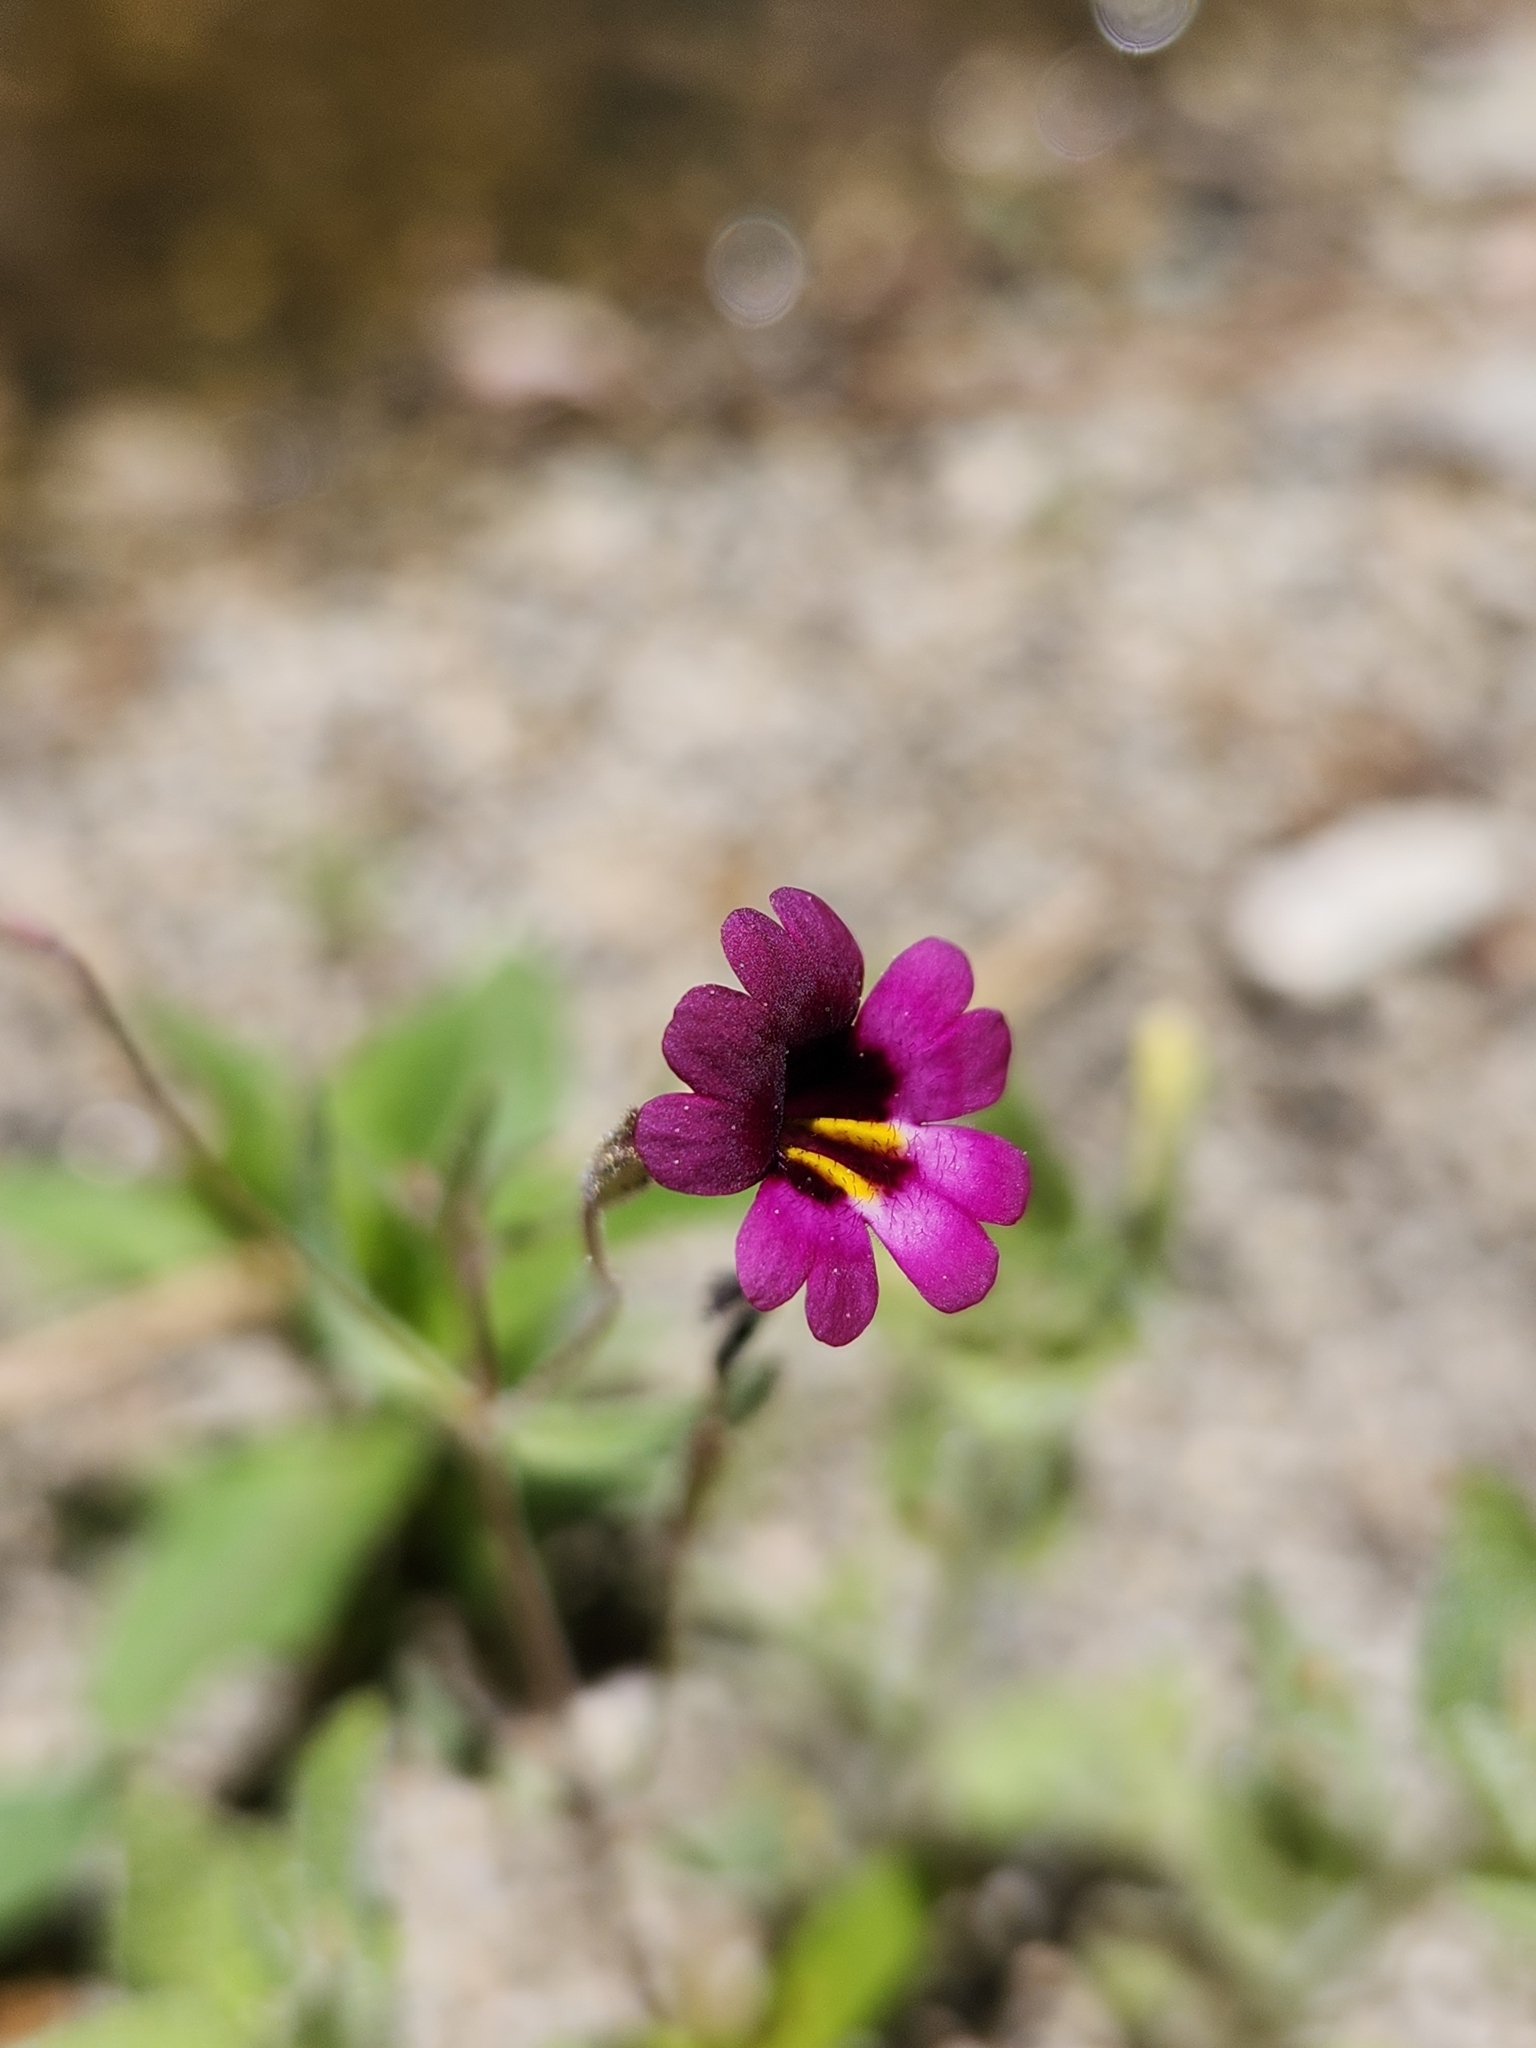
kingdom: Plantae
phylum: Tracheophyta
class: Magnoliopsida
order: Lamiales
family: Phrymaceae
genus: Erythranthe
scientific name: Erythranthe diffusa
